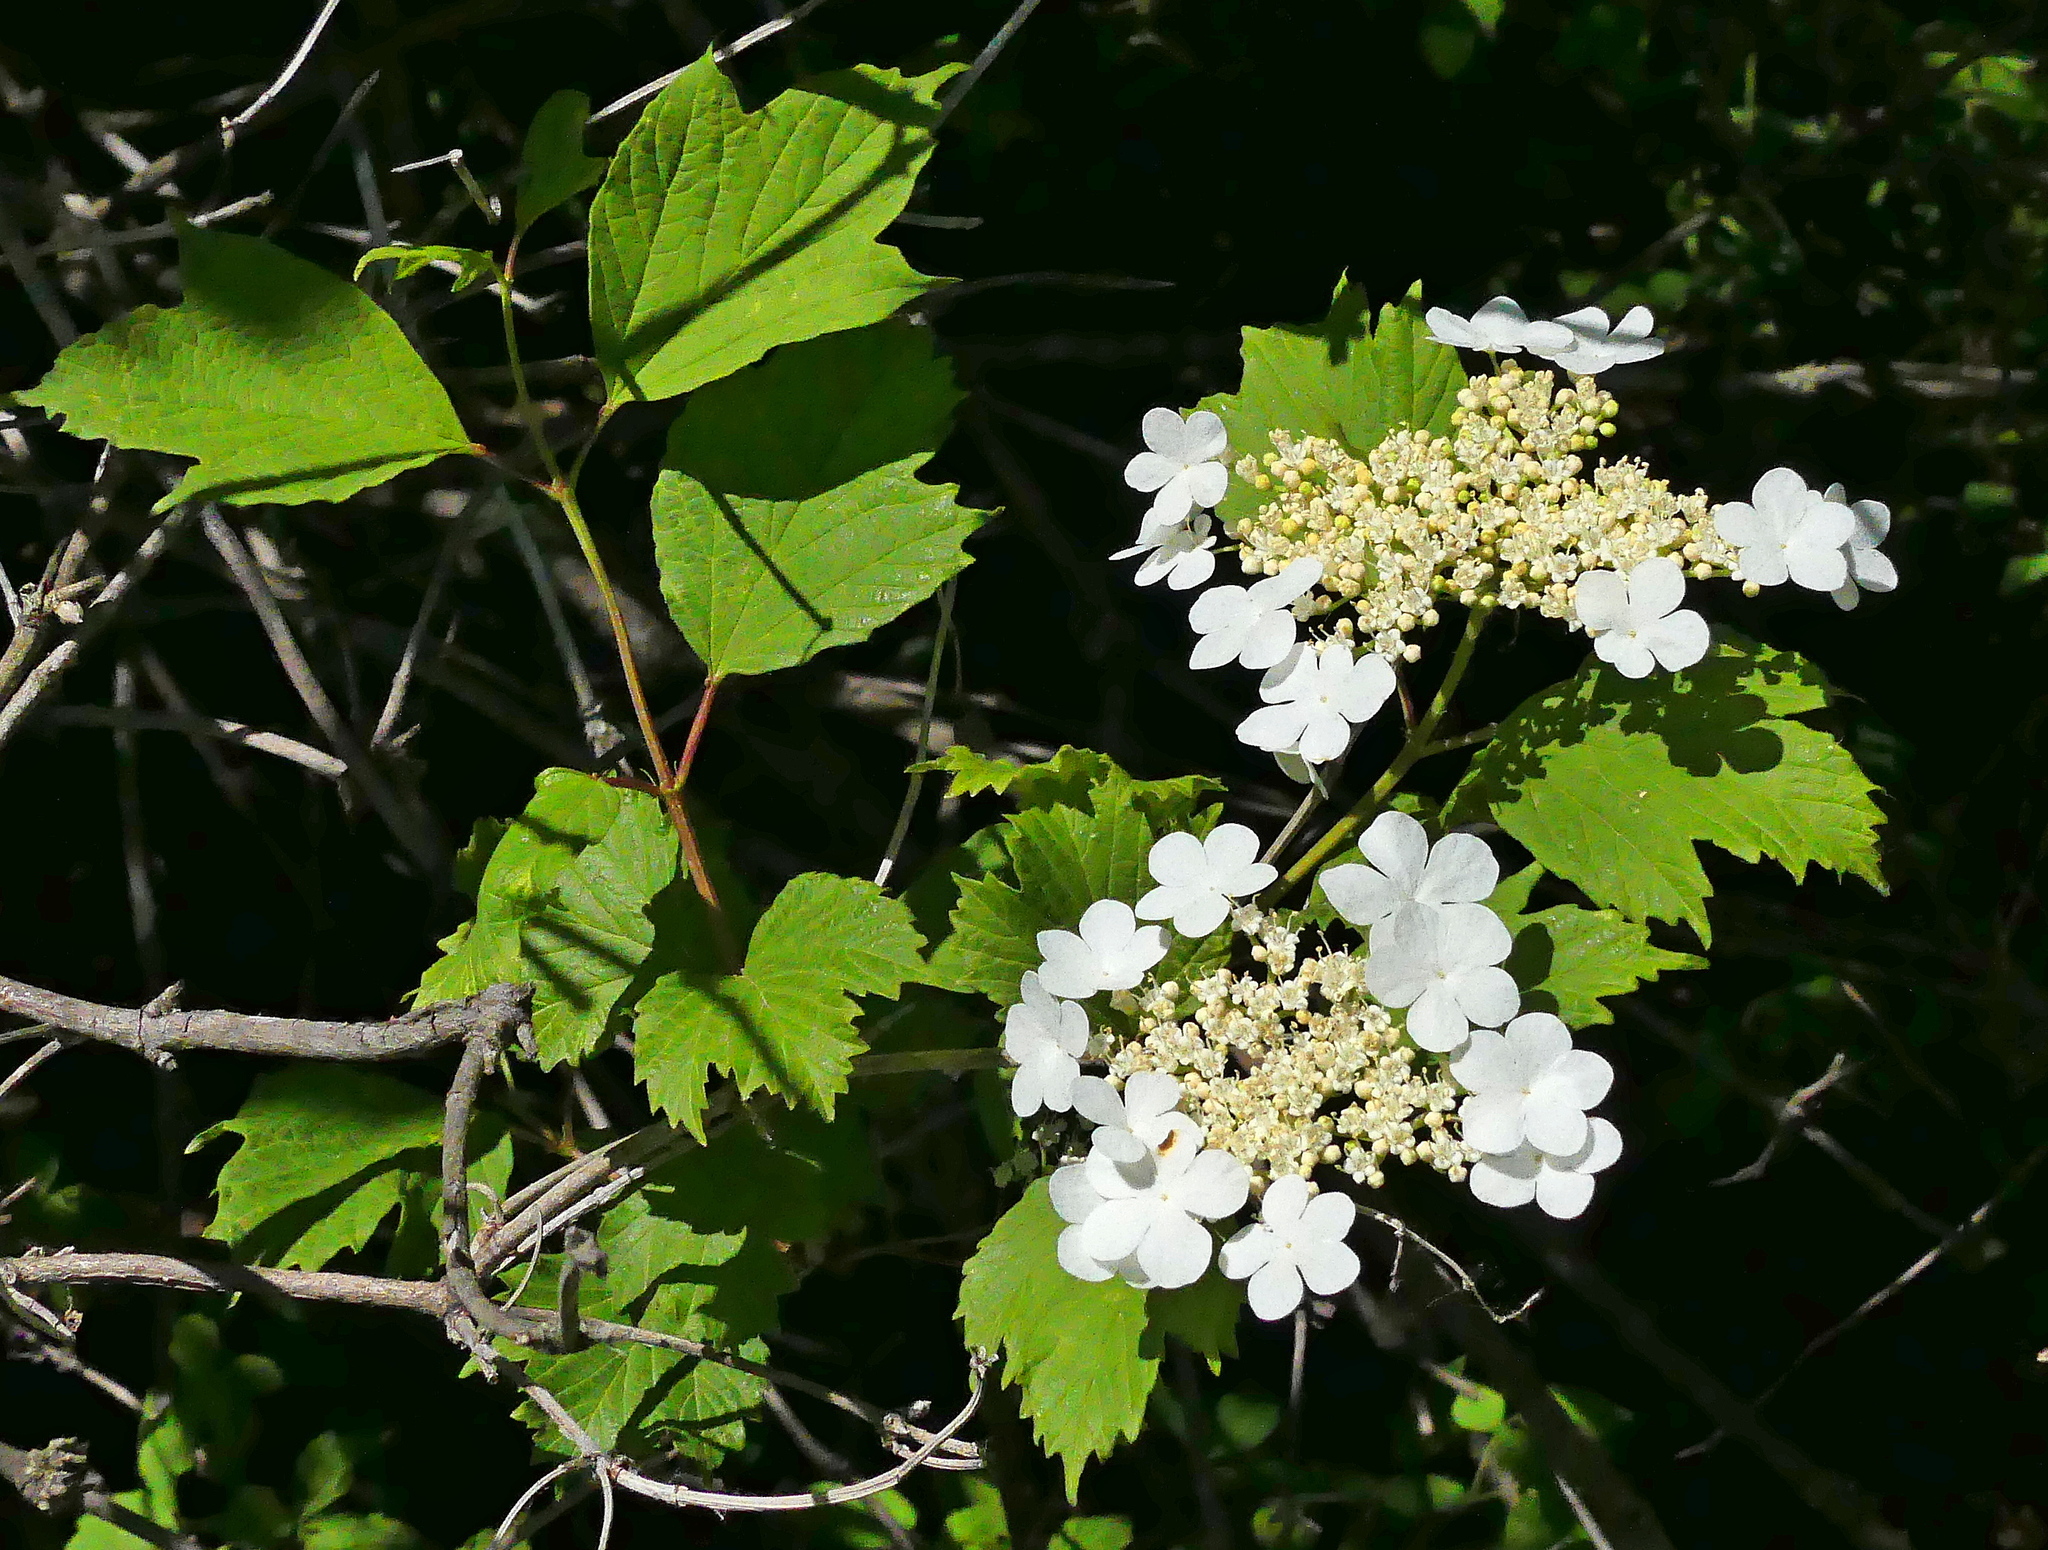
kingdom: Plantae
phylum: Tracheophyta
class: Magnoliopsida
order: Dipsacales
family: Viburnaceae
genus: Viburnum
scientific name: Viburnum opulus
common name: Guelder-rose
